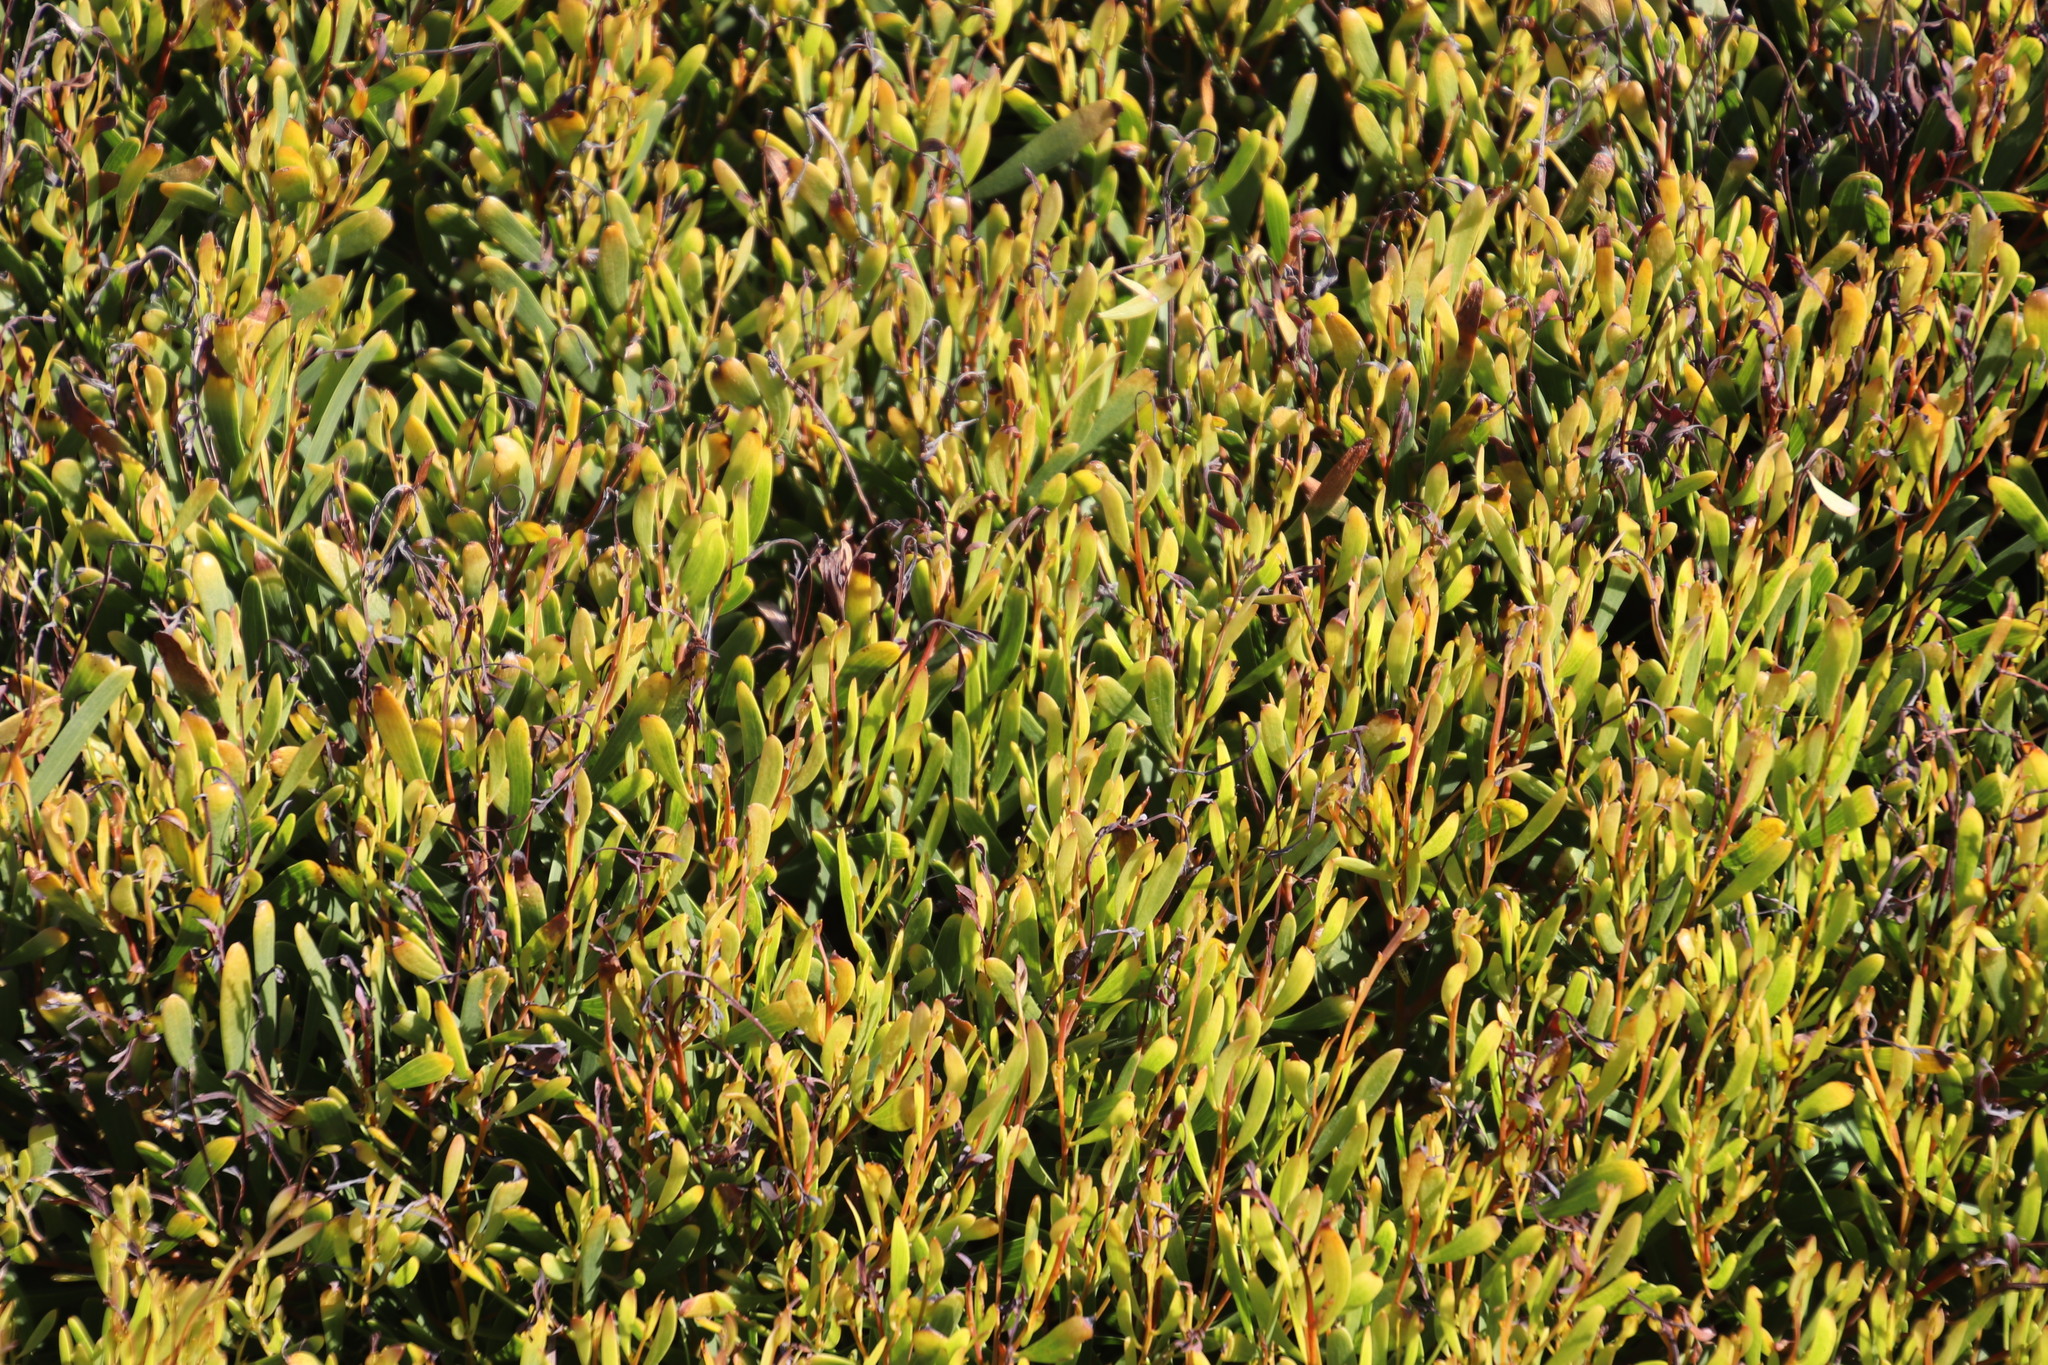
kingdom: Plantae
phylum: Tracheophyta
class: Magnoliopsida
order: Fabales
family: Fabaceae
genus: Acacia
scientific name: Acacia cyclops
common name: Coastal wattle
